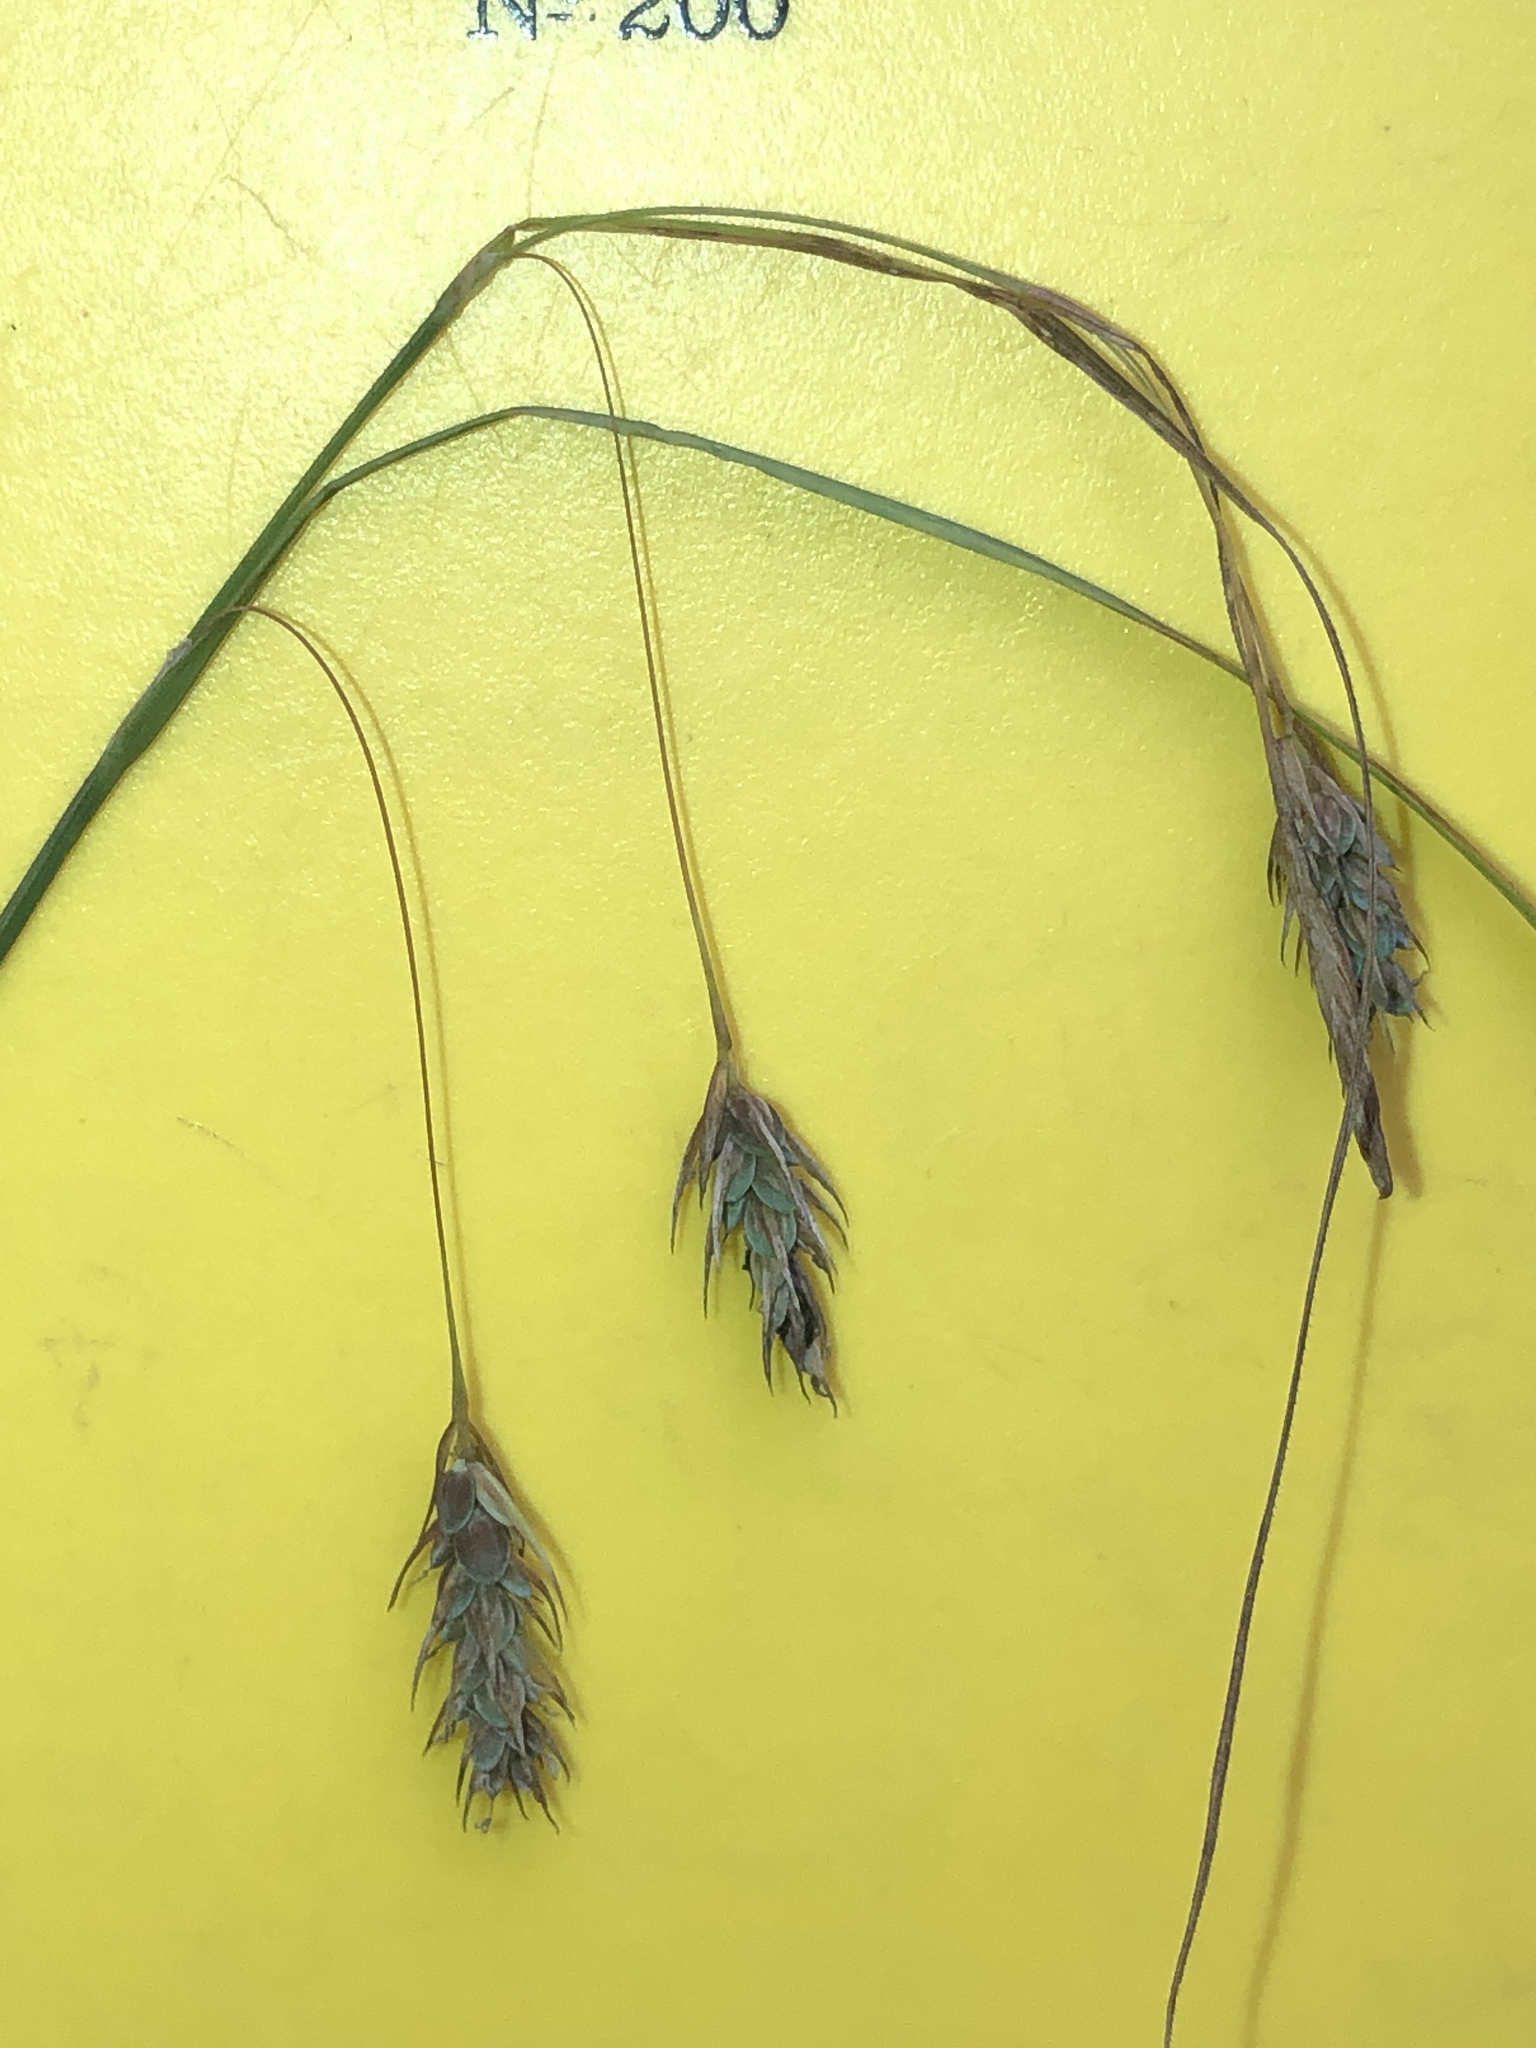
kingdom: Plantae
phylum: Tracheophyta
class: Liliopsida
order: Poales
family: Cyperaceae
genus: Carex
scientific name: Carex magellanica
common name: Bog sedge
